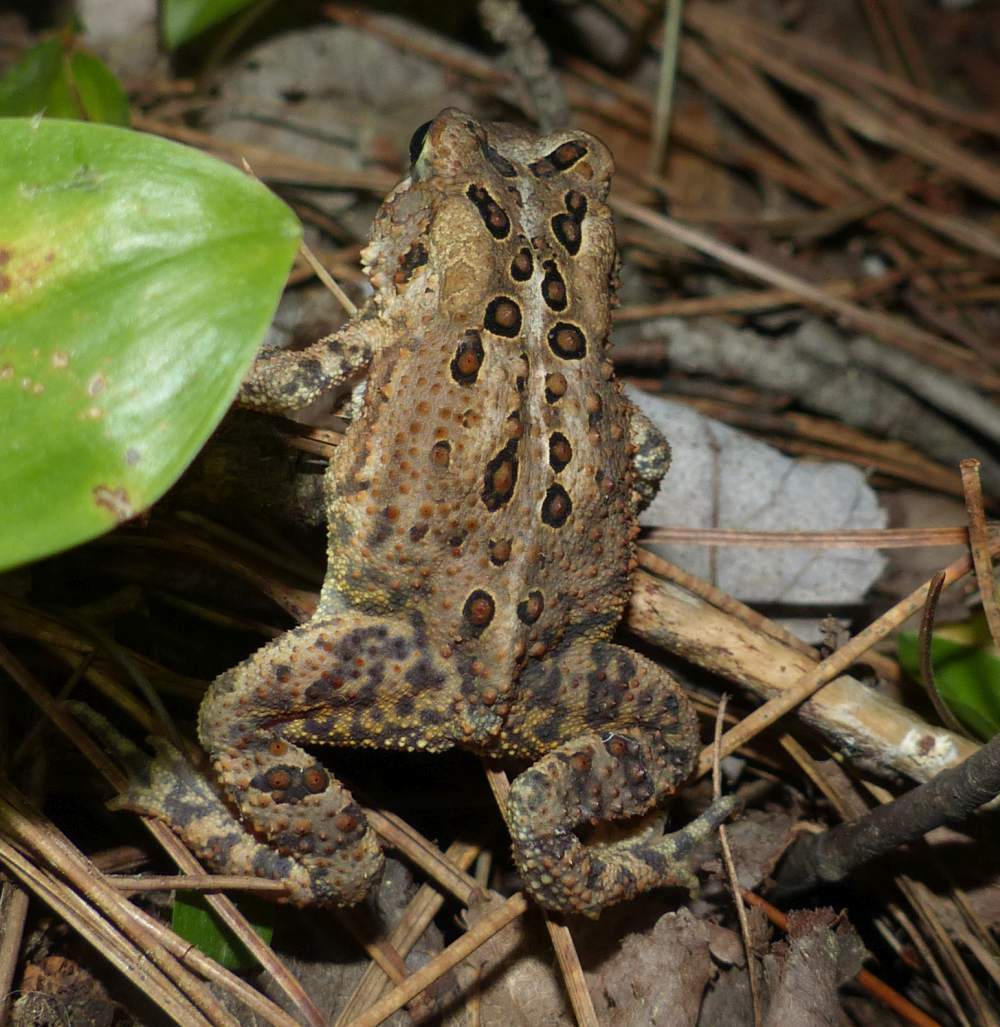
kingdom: Animalia
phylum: Chordata
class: Amphibia
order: Anura
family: Bufonidae
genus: Anaxyrus
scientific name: Anaxyrus americanus
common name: American toad
